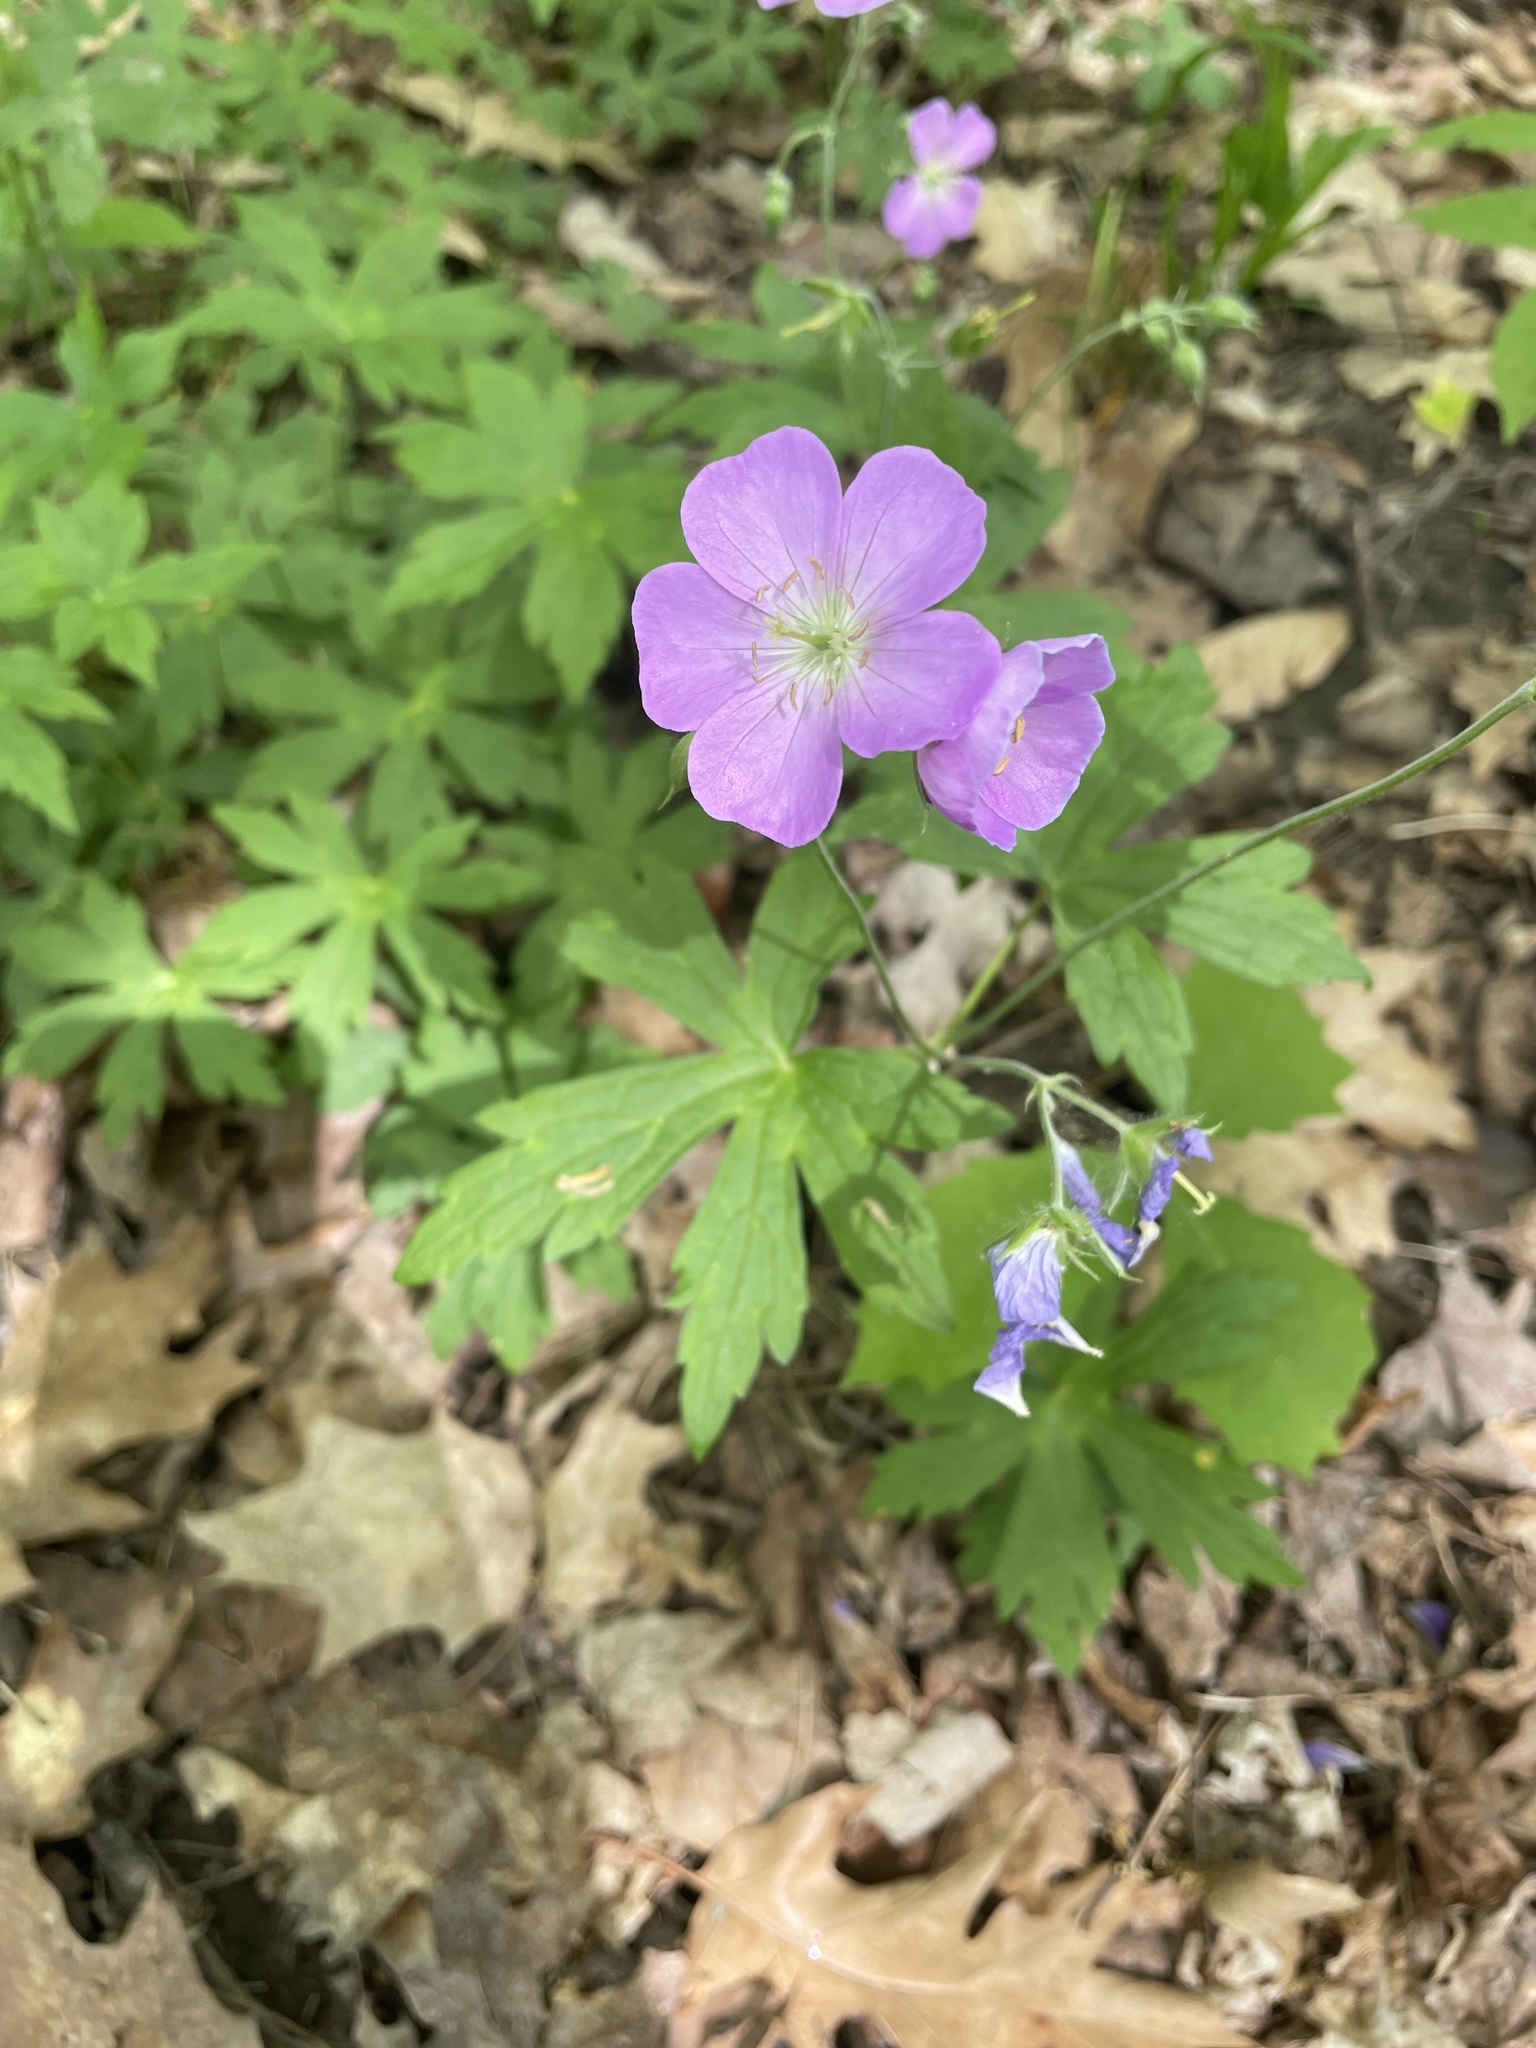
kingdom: Plantae
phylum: Tracheophyta
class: Magnoliopsida
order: Geraniales
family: Geraniaceae
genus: Geranium
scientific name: Geranium maculatum
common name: Spotted geranium
